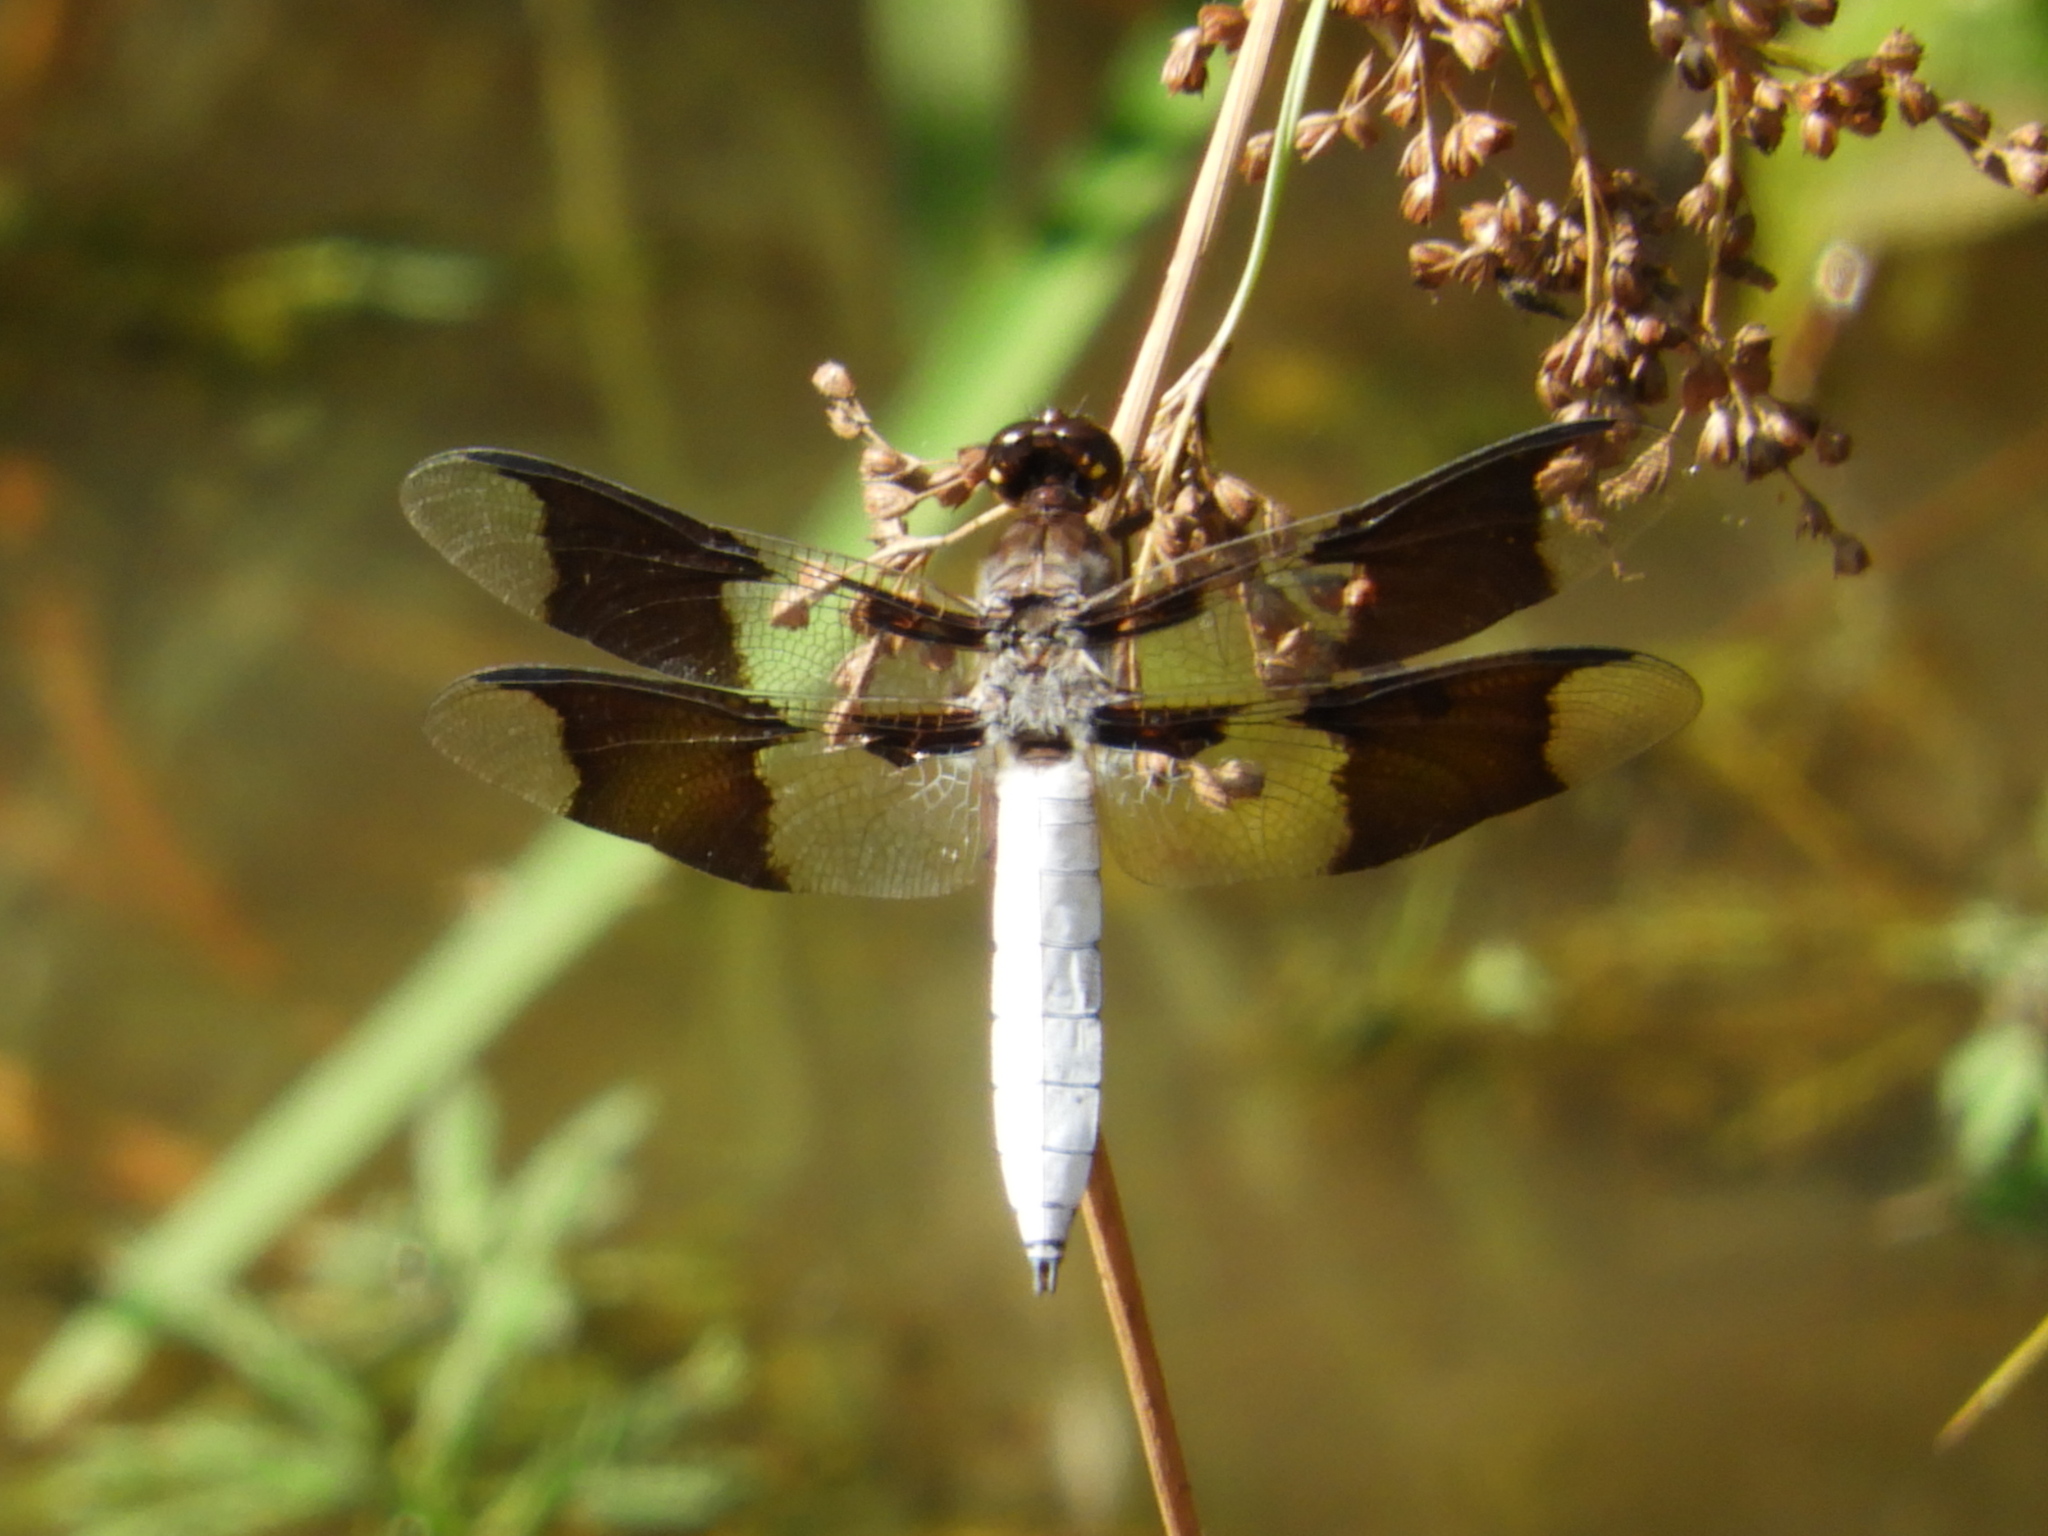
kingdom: Animalia
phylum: Arthropoda
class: Insecta
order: Odonata
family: Libellulidae
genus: Plathemis
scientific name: Plathemis lydia
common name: Common whitetail
